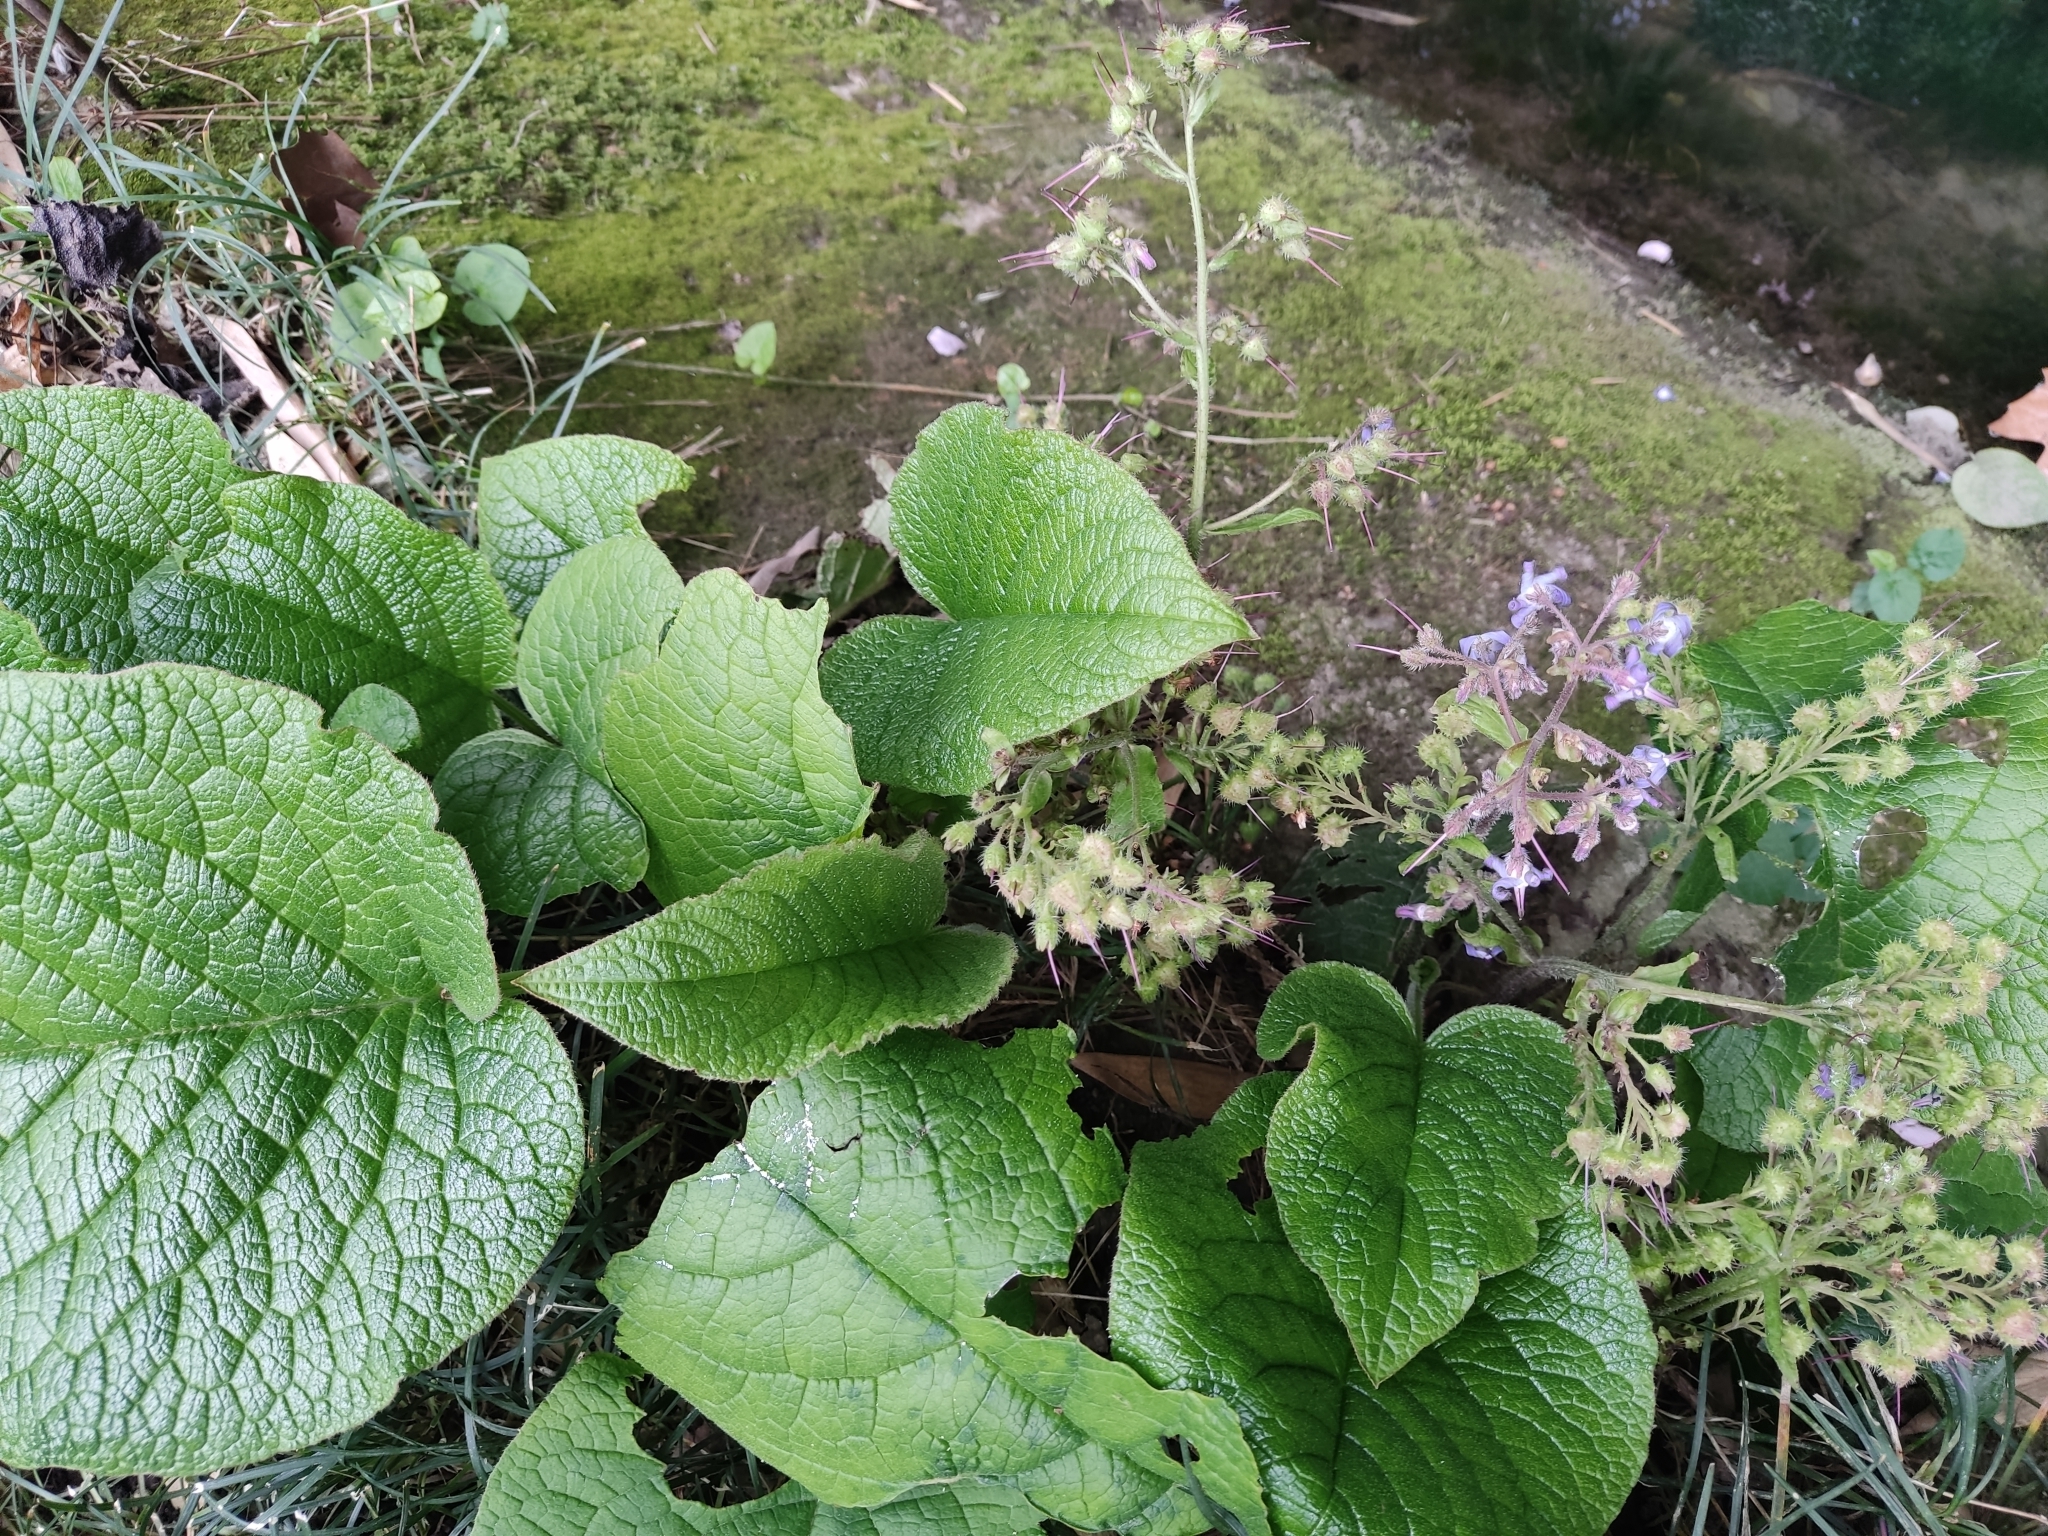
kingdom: Plantae
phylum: Tracheophyta
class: Magnoliopsida
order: Boraginales
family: Boraginaceae
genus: Trachystemon
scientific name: Trachystemon orientale
